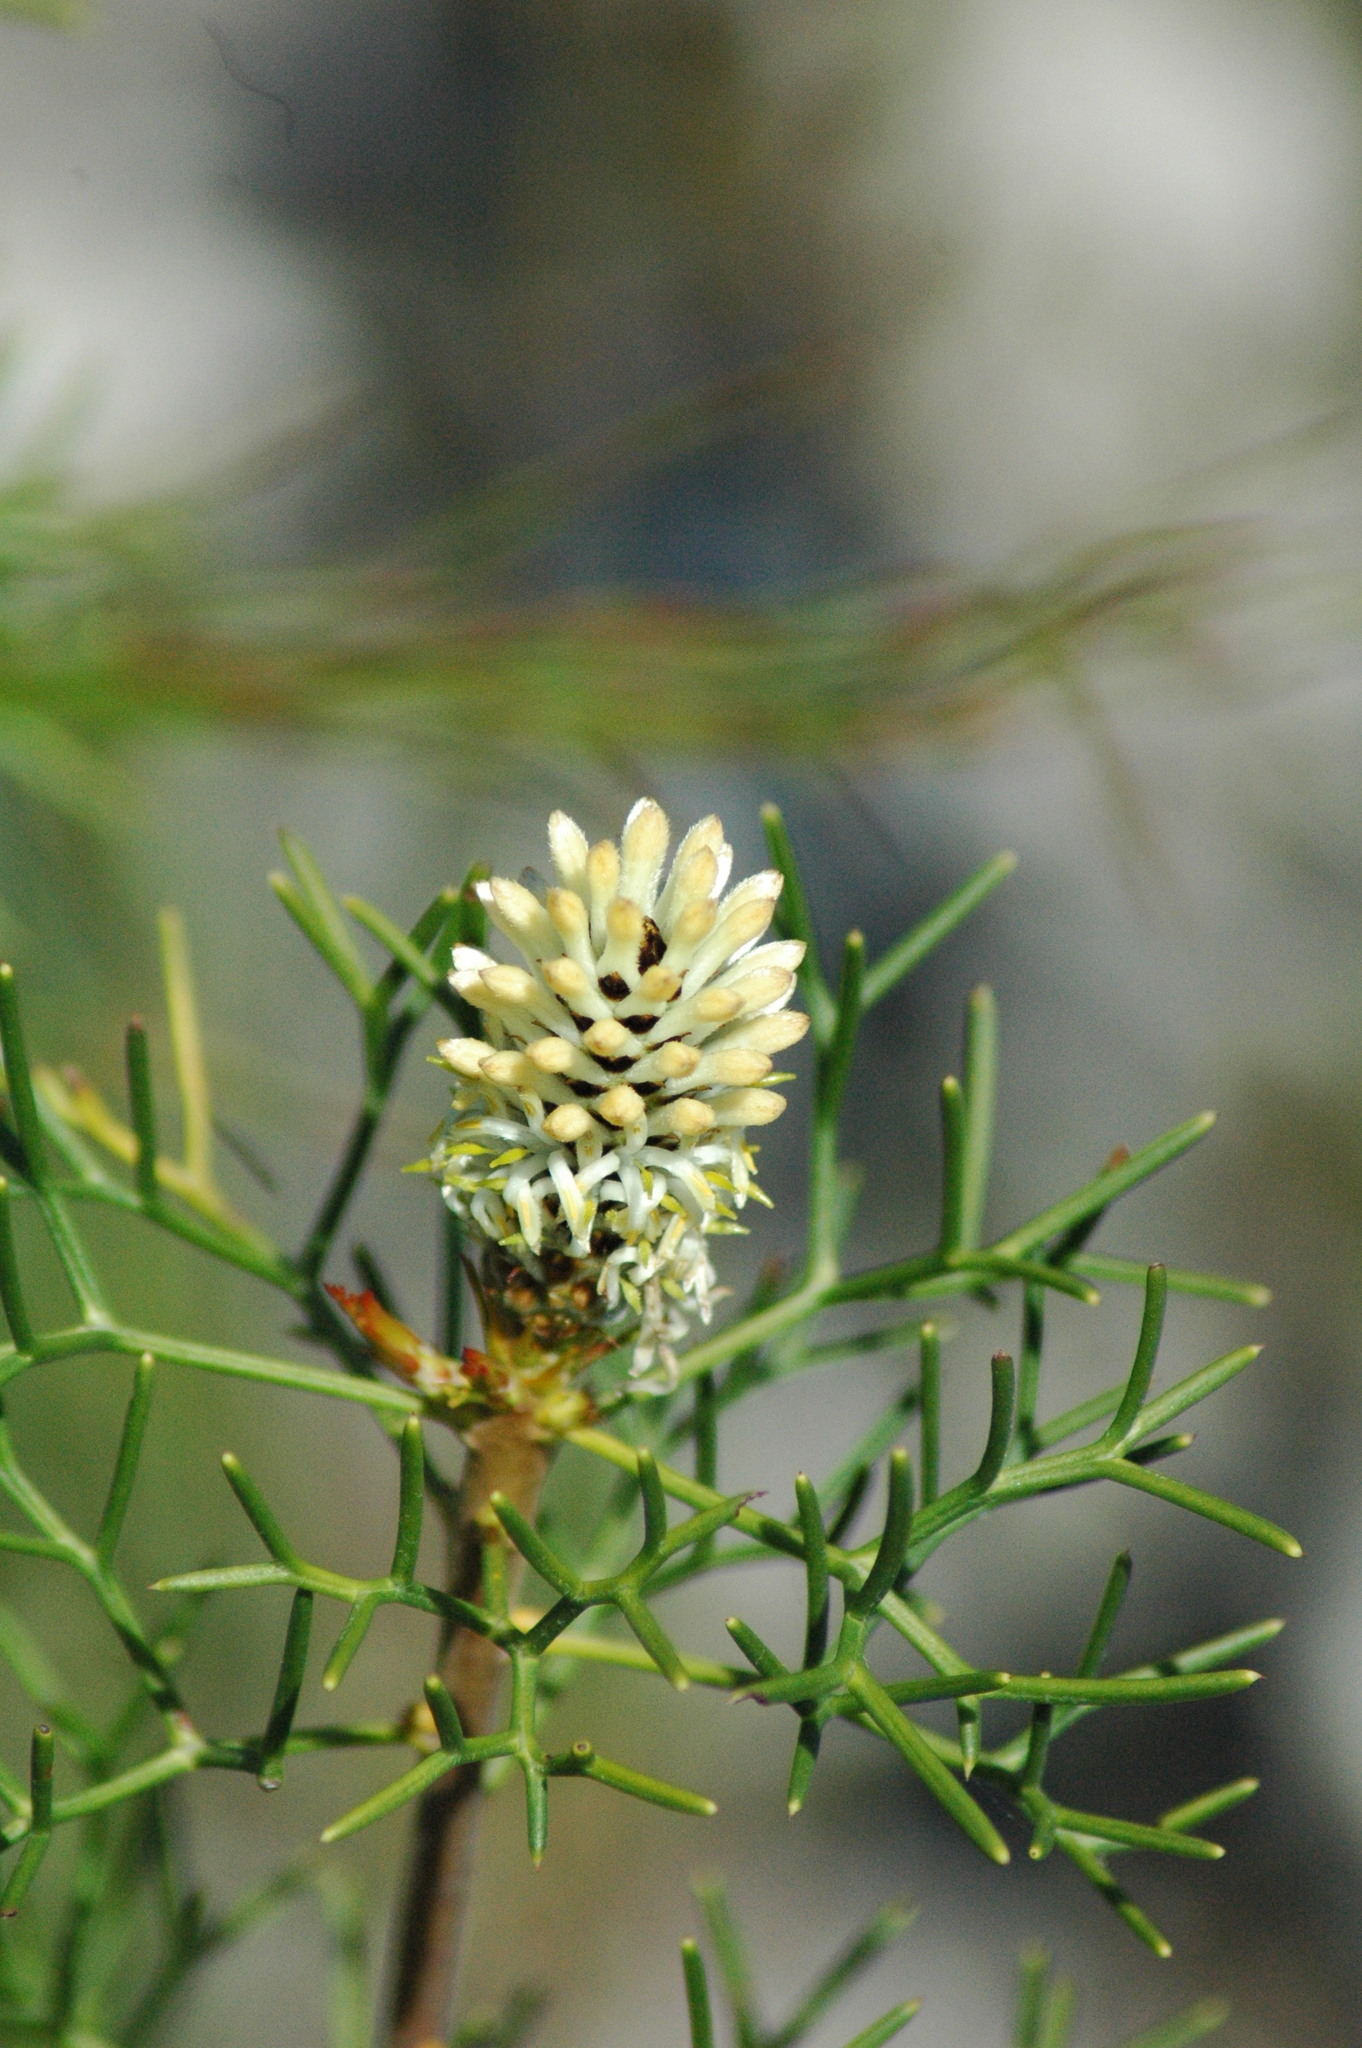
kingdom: Plantae
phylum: Tracheophyta
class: Magnoliopsida
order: Proteales
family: Proteaceae
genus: Petrophile
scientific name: Petrophile sessilis
